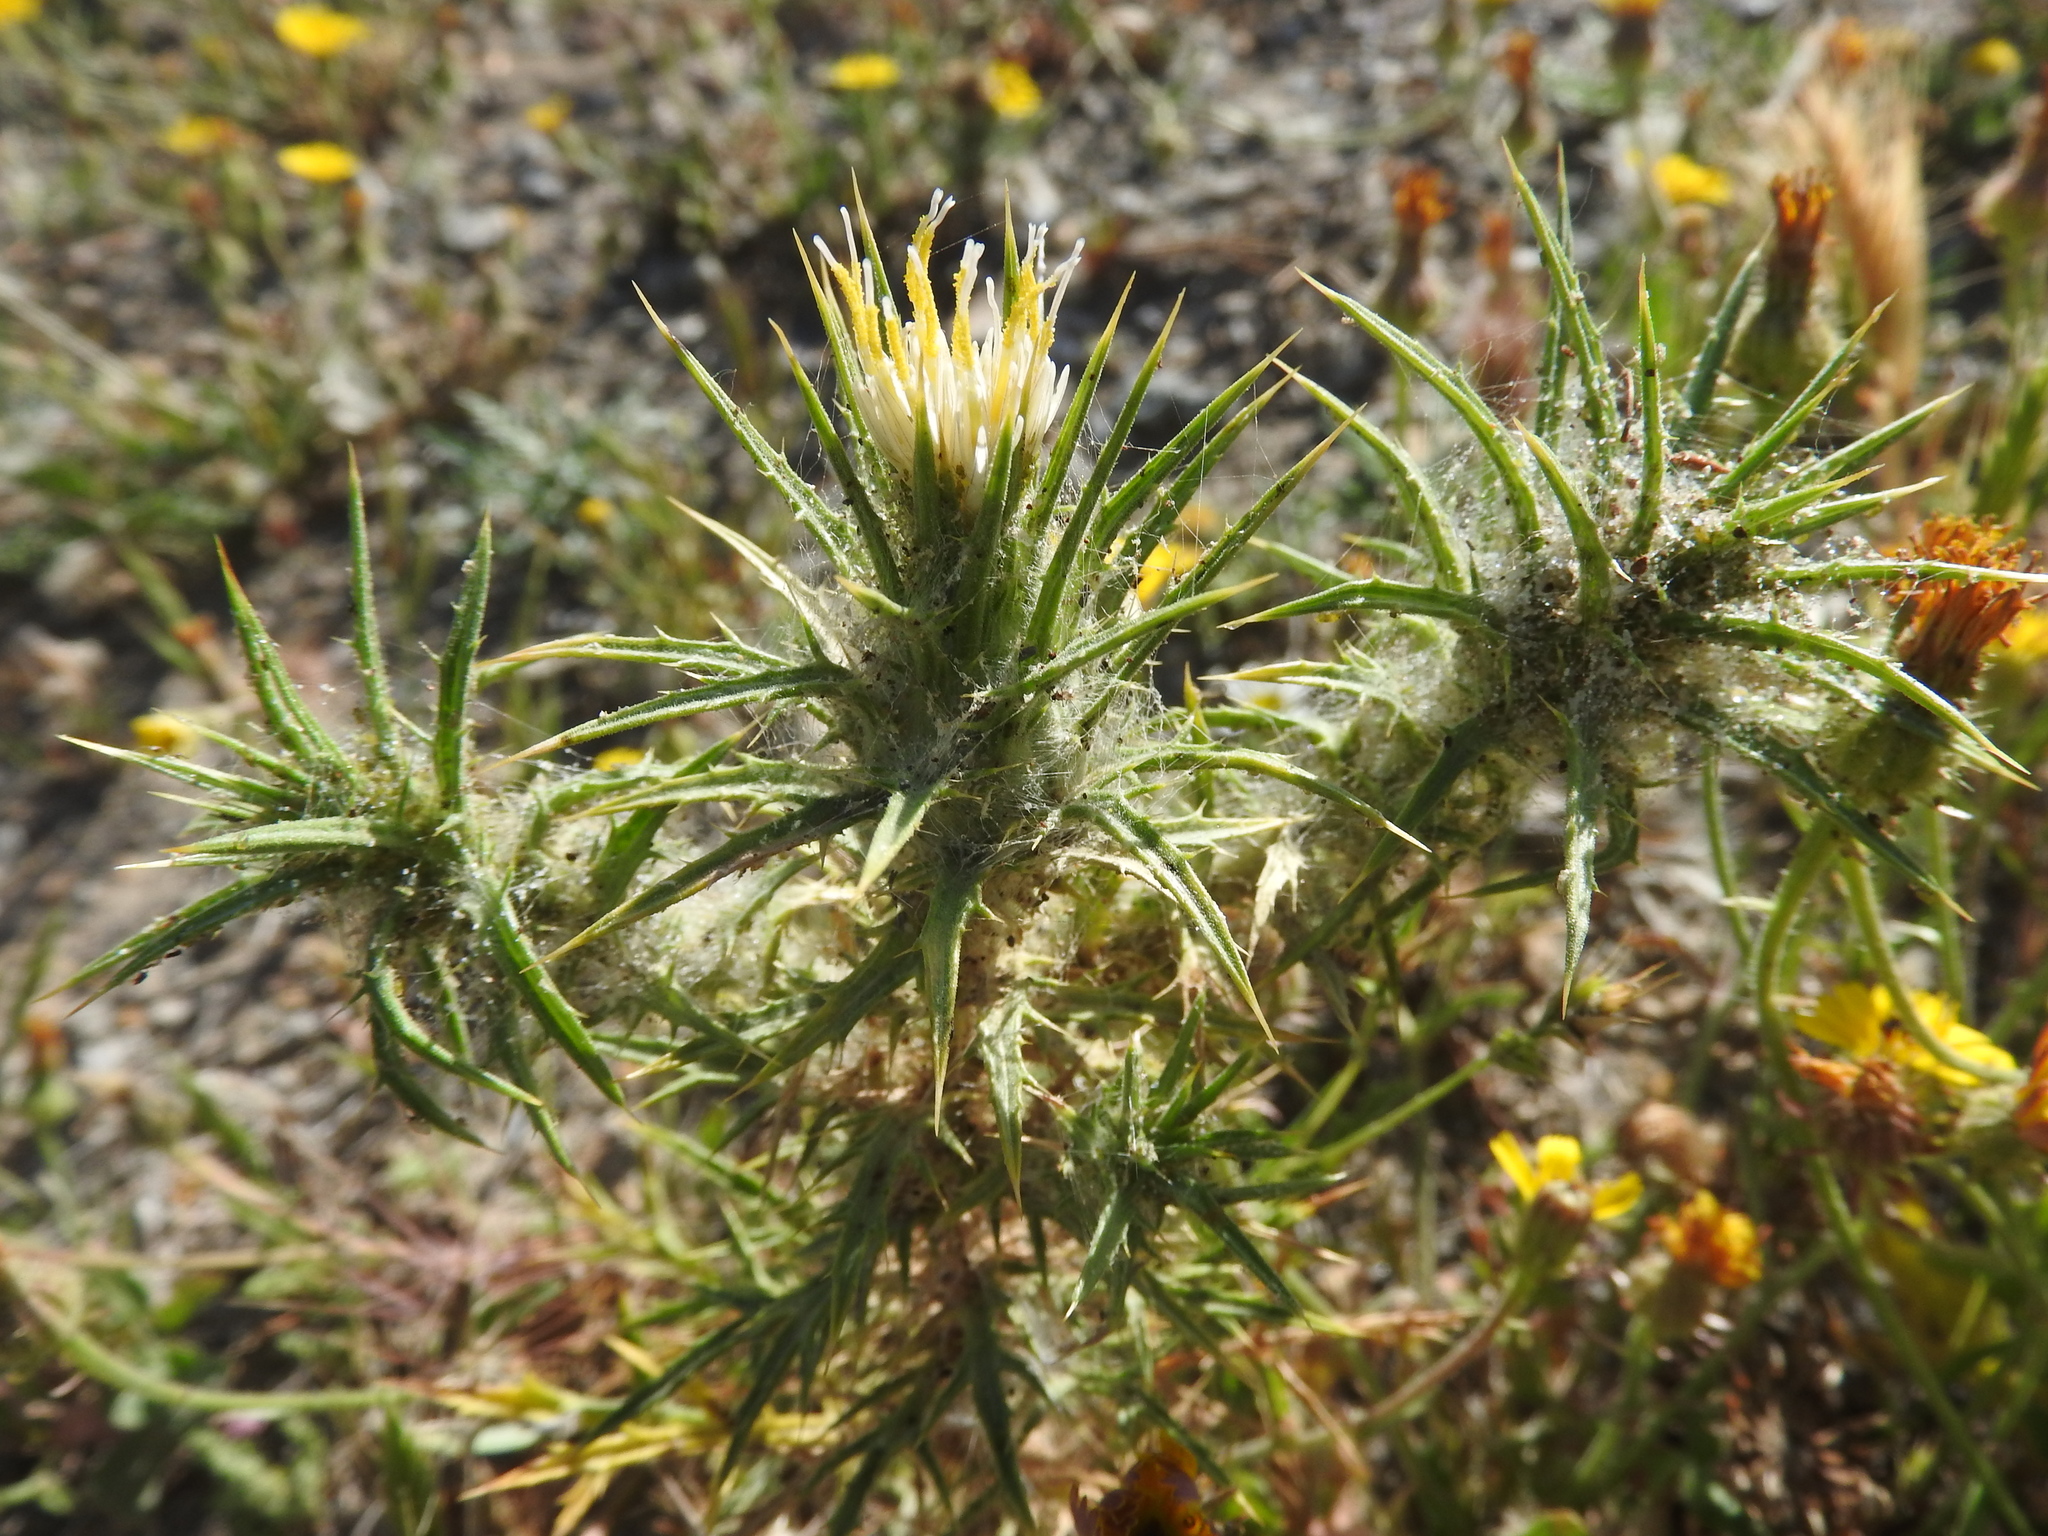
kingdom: Plantae
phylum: Tracheophyta
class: Magnoliopsida
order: Asterales
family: Asteraceae
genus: Carthamus
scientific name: Carthamus creticus
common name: Smooth distaff thistle
